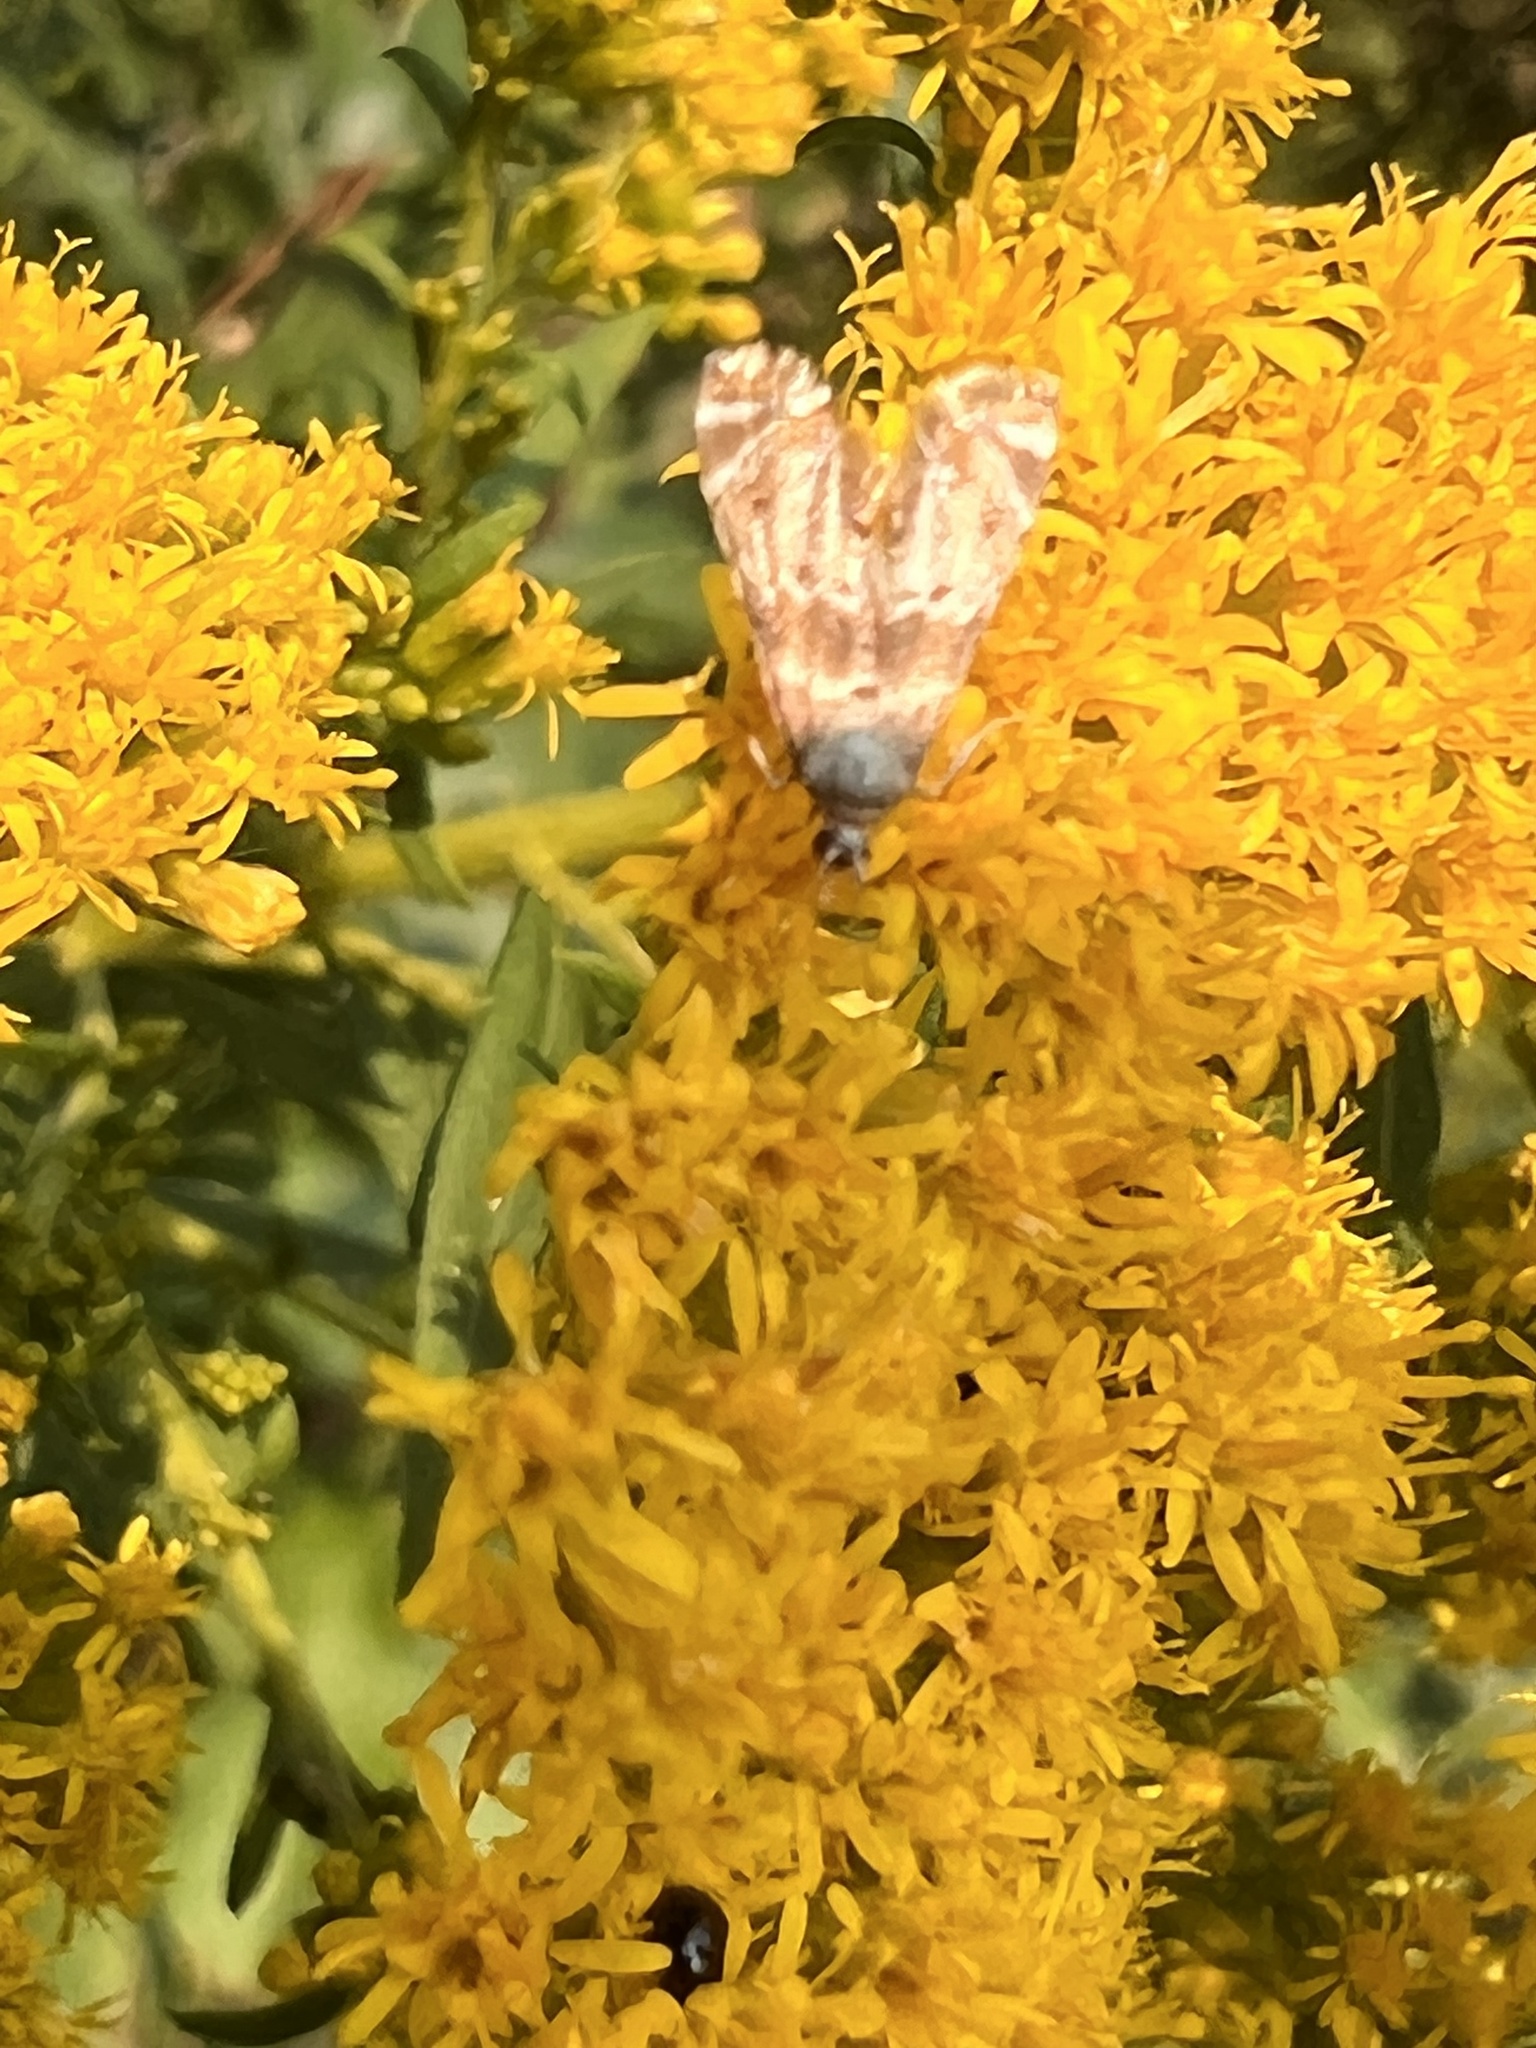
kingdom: Animalia
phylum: Arthropoda
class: Insecta
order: Lepidoptera
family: Crambidae
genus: Petrophila
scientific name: Petrophila fulicalis
